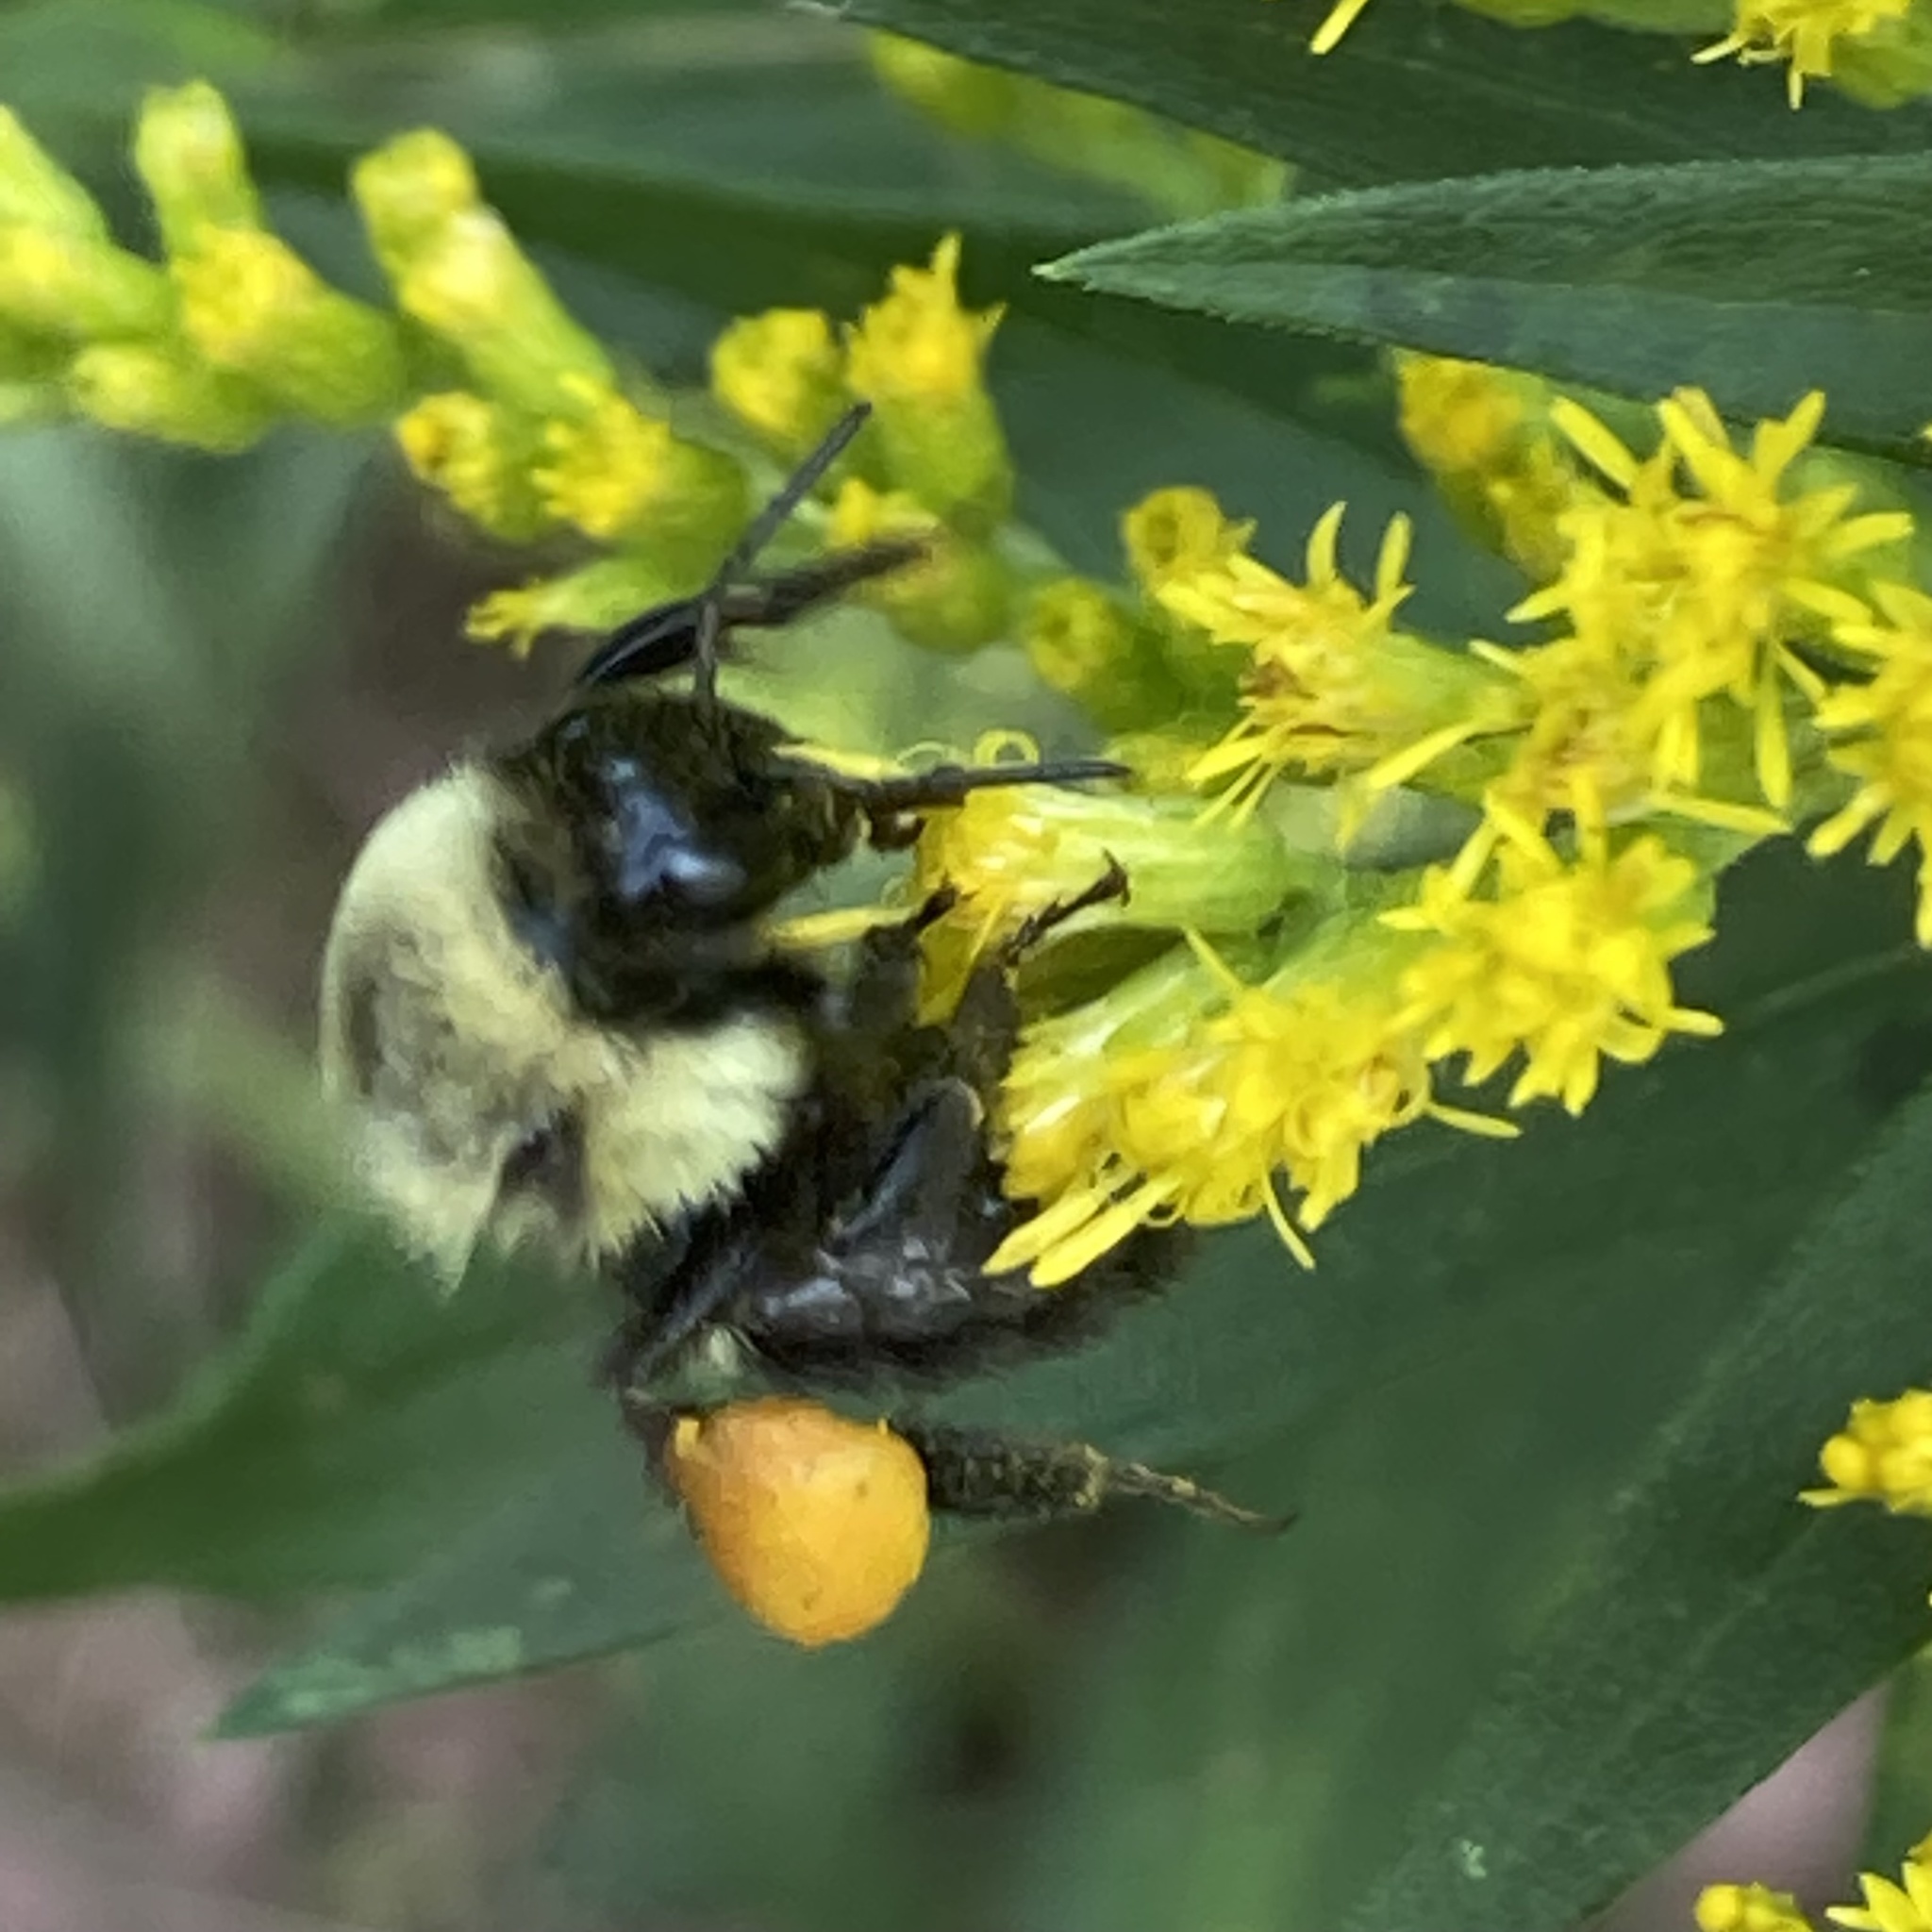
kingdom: Animalia
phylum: Arthropoda
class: Insecta
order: Hymenoptera
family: Apidae
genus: Bombus
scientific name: Bombus impatiens
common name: Common eastern bumble bee
